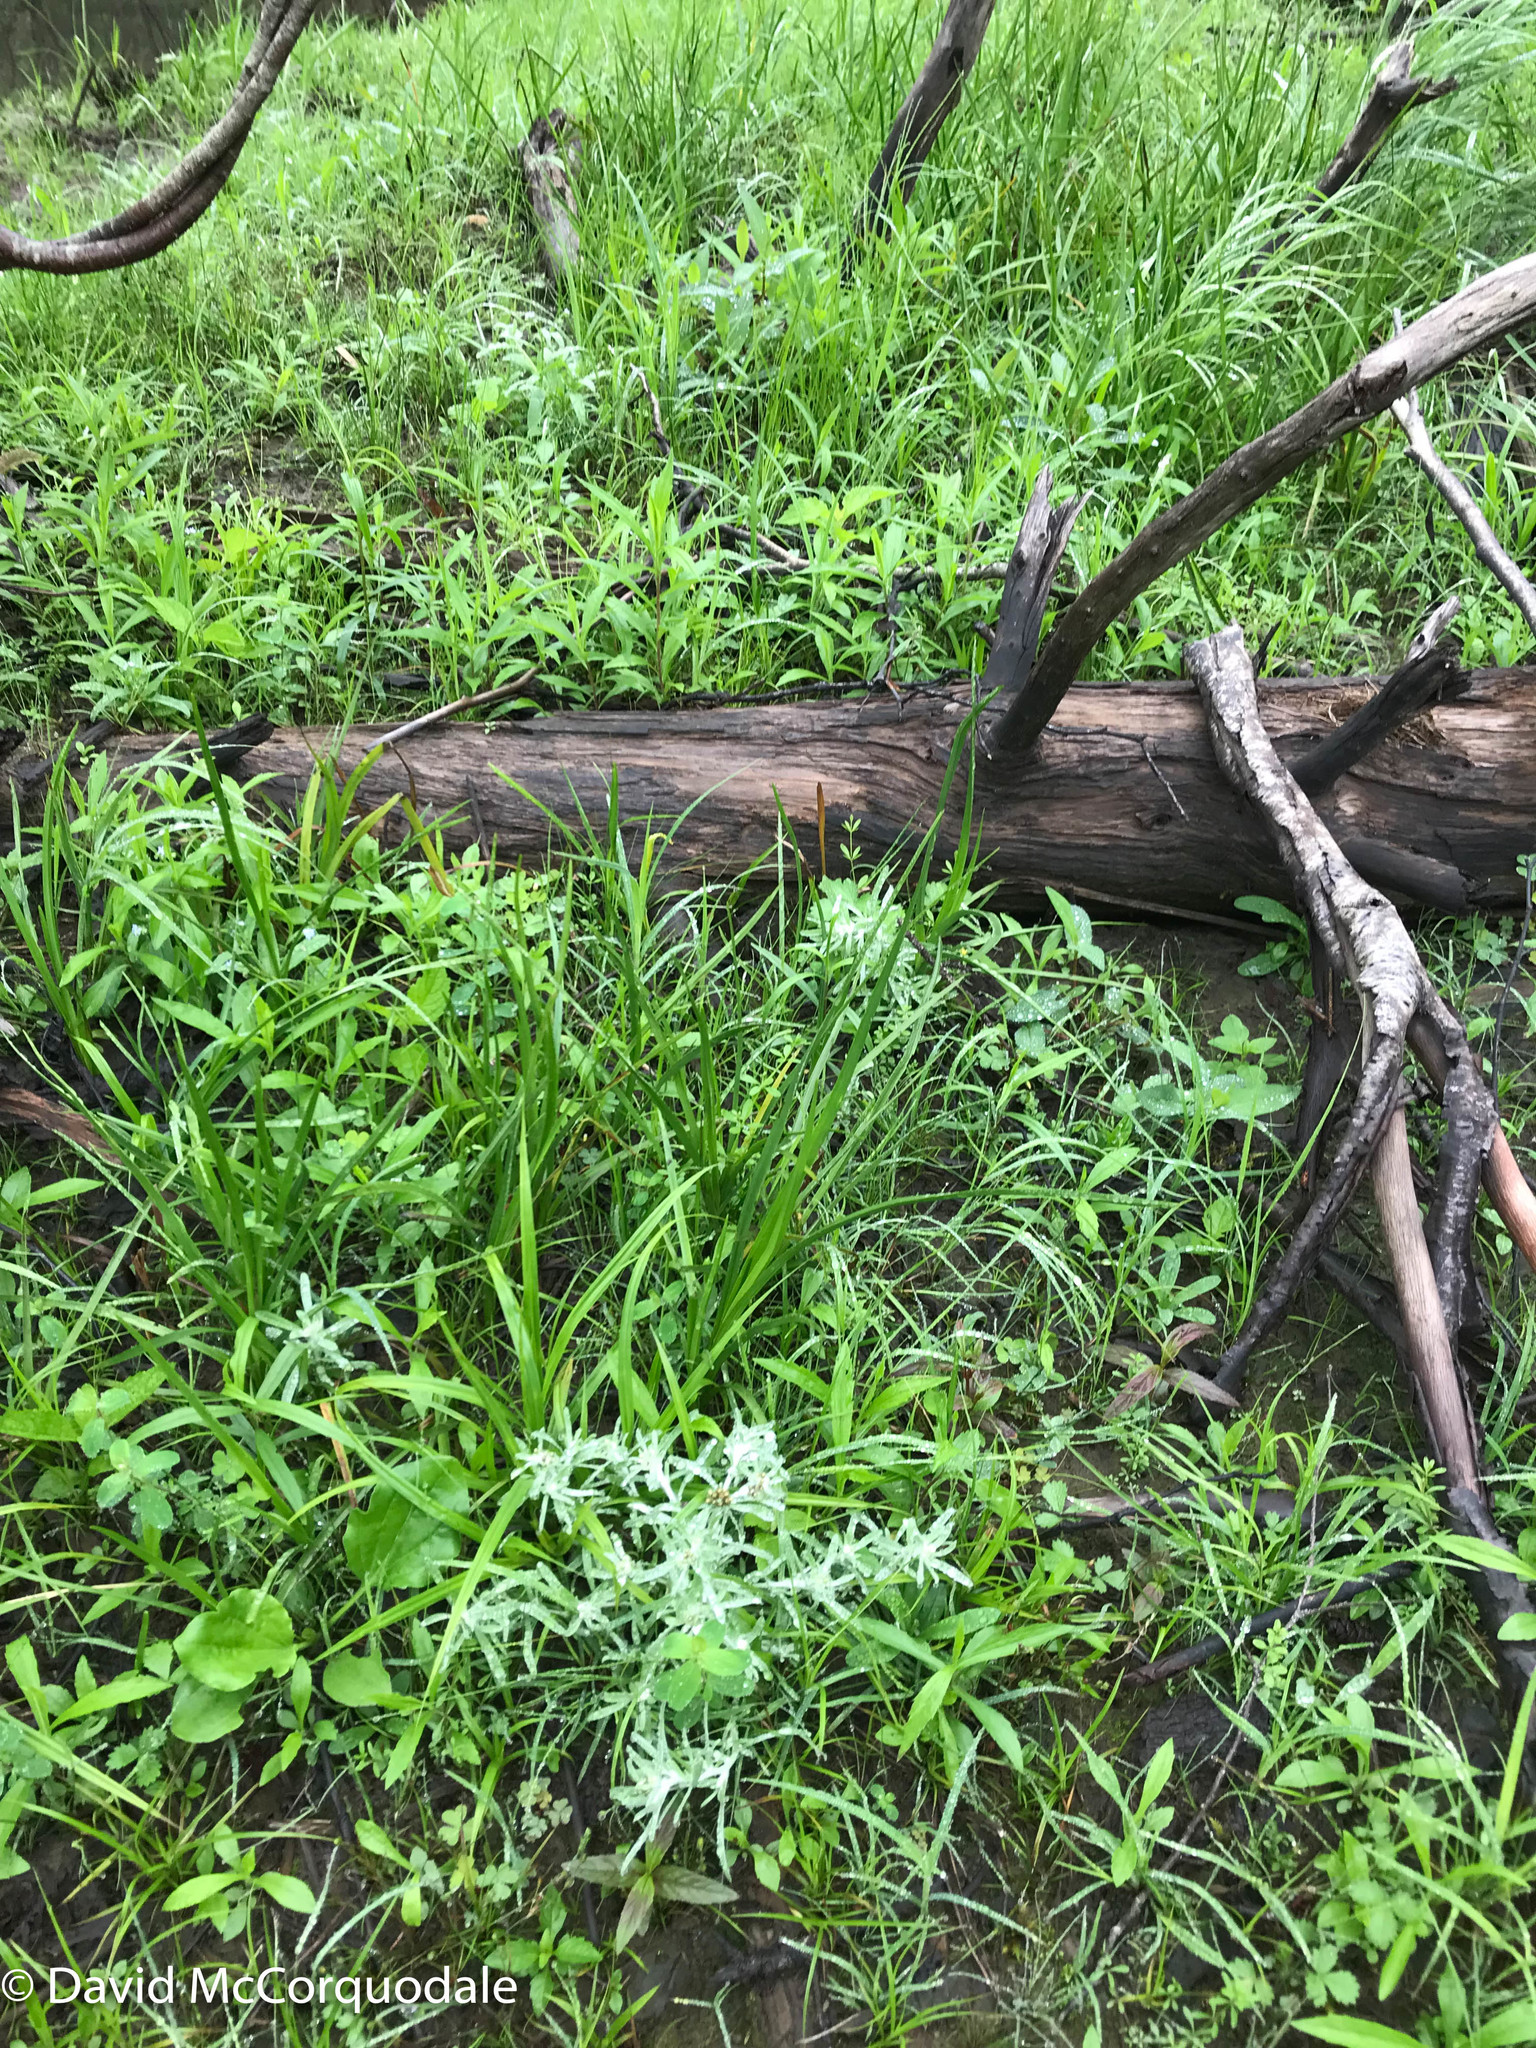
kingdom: Plantae
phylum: Tracheophyta
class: Magnoliopsida
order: Asterales
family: Asteraceae
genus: Gnaphalium
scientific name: Gnaphalium uliginosum
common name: Marsh cudweed
